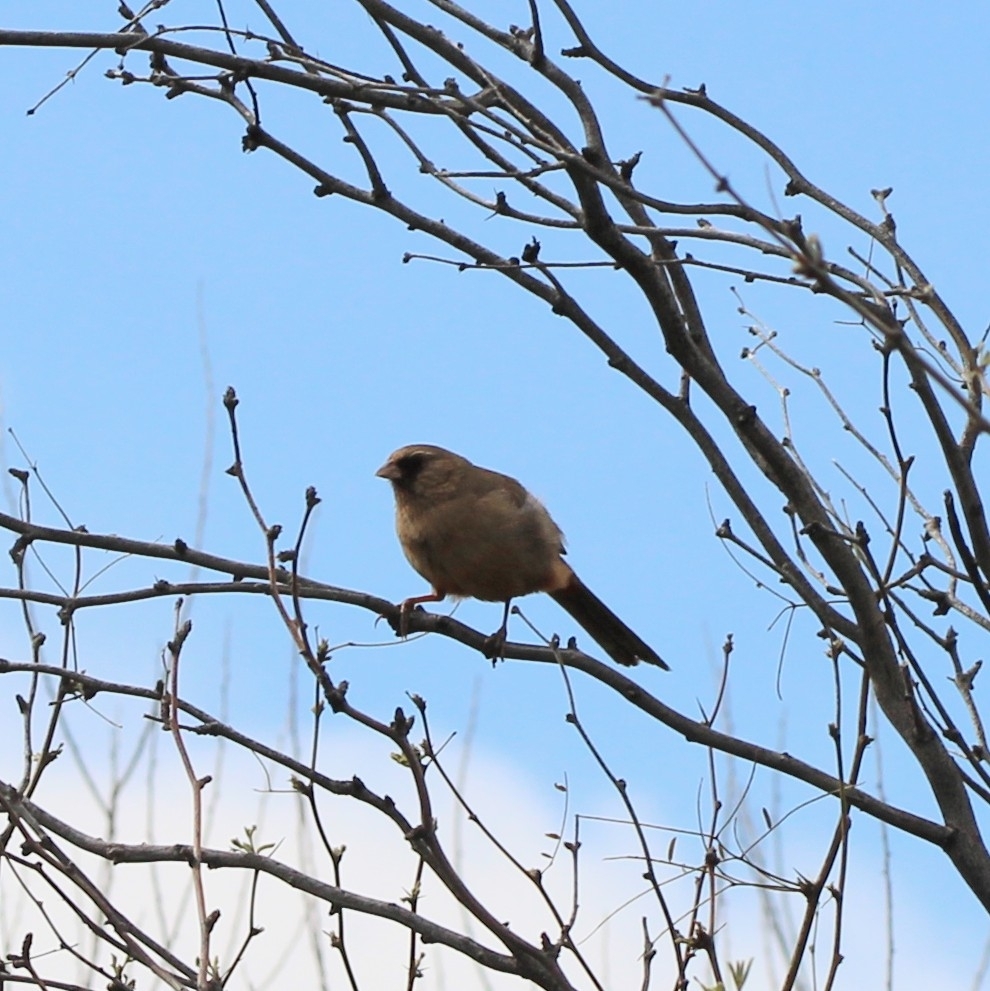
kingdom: Animalia
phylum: Chordata
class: Aves
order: Passeriformes
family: Passerellidae
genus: Melozone
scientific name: Melozone aberti
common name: Abert's towhee
